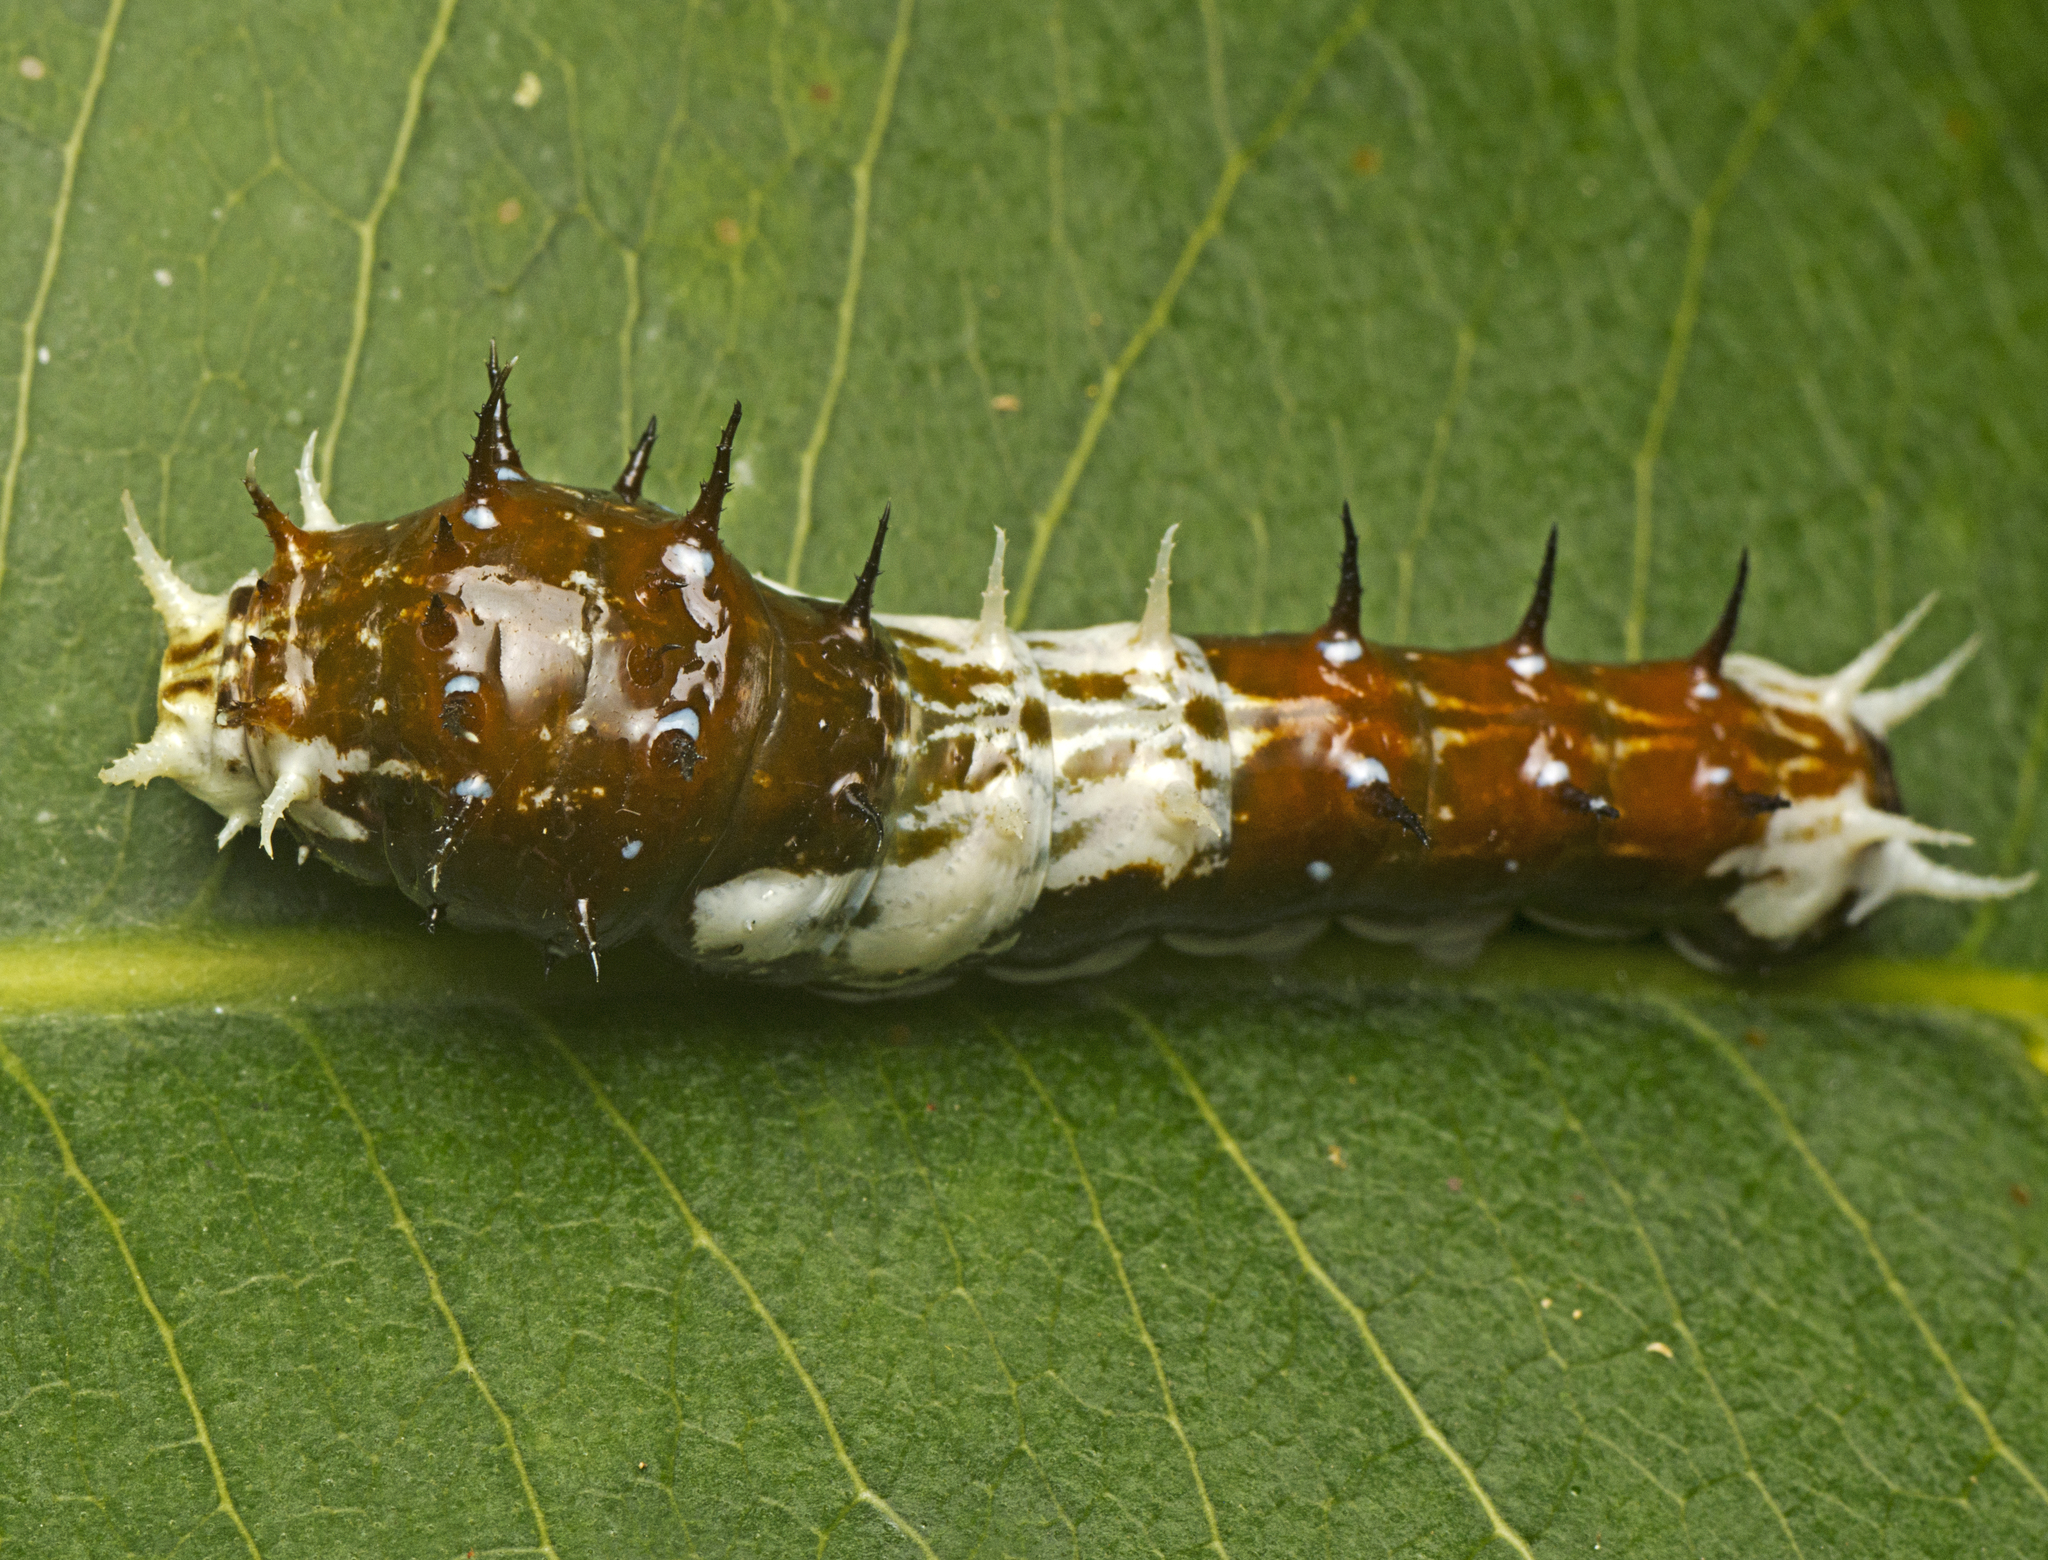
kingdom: Animalia
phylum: Arthropoda
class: Insecta
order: Lepidoptera
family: Papilionidae
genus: Papilio
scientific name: Papilio aegeus
